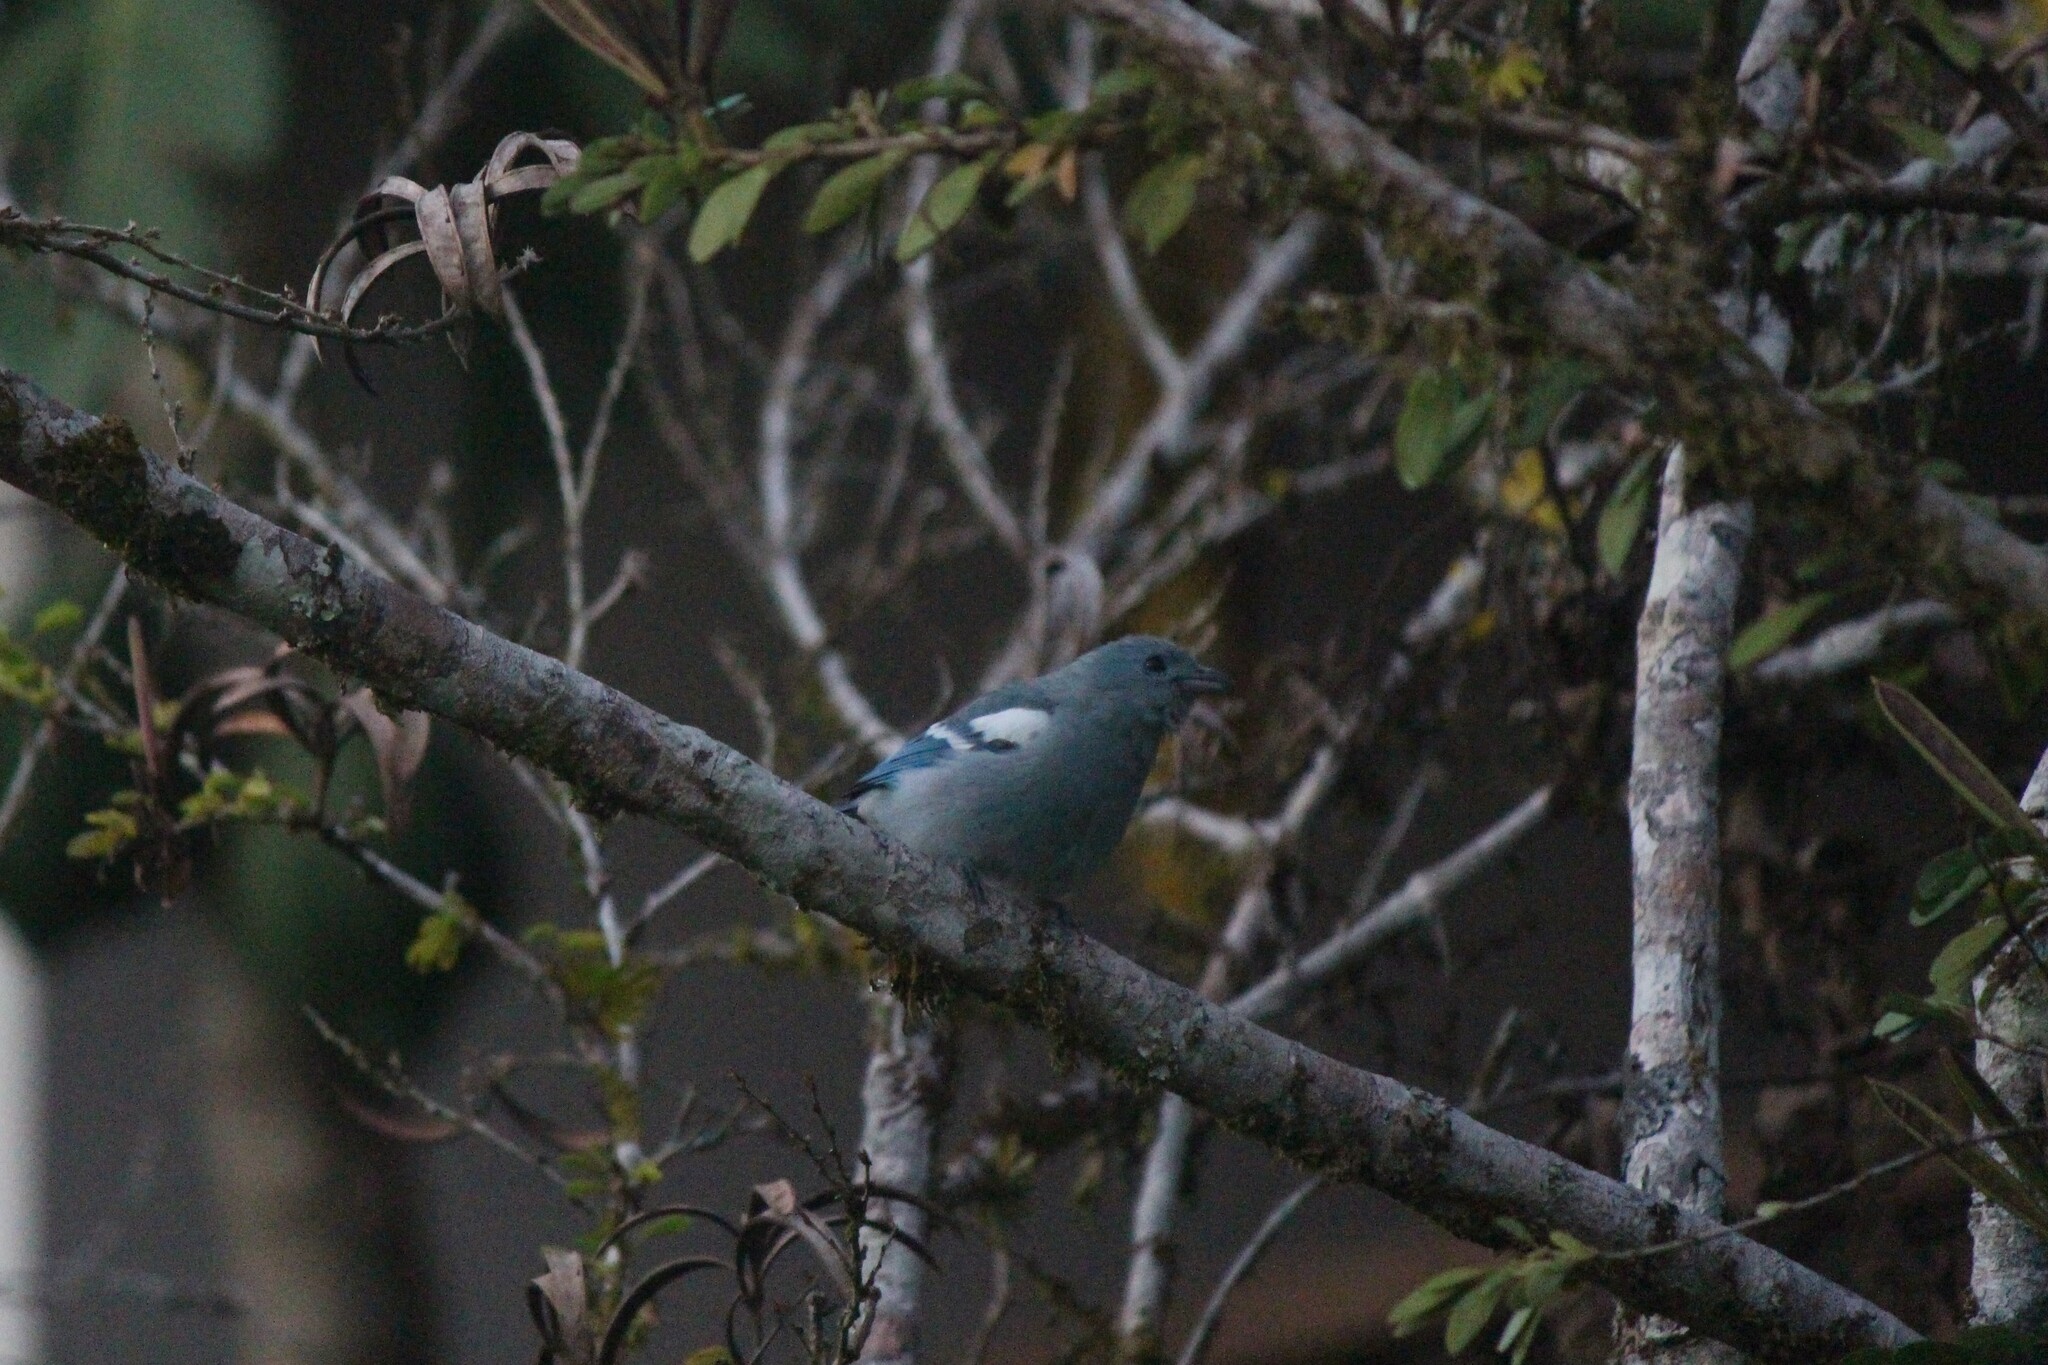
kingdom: Animalia
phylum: Chordata
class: Aves
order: Passeriformes
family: Thraupidae
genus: Thraupis
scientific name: Thraupis episcopus
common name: Blue-grey tanager
